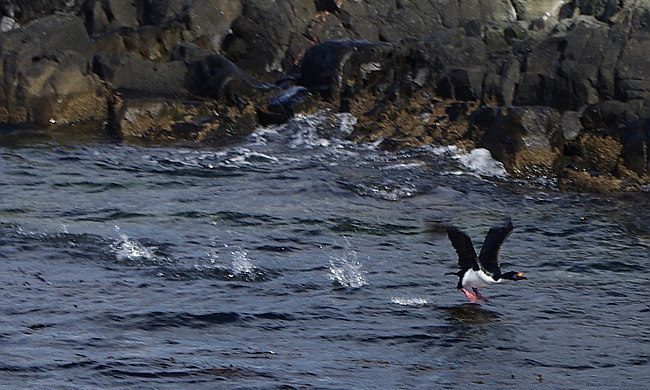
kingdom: Animalia
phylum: Chordata
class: Aves
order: Suliformes
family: Phalacrocoracidae
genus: Leucocarbo
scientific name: Leucocarbo albiventer
